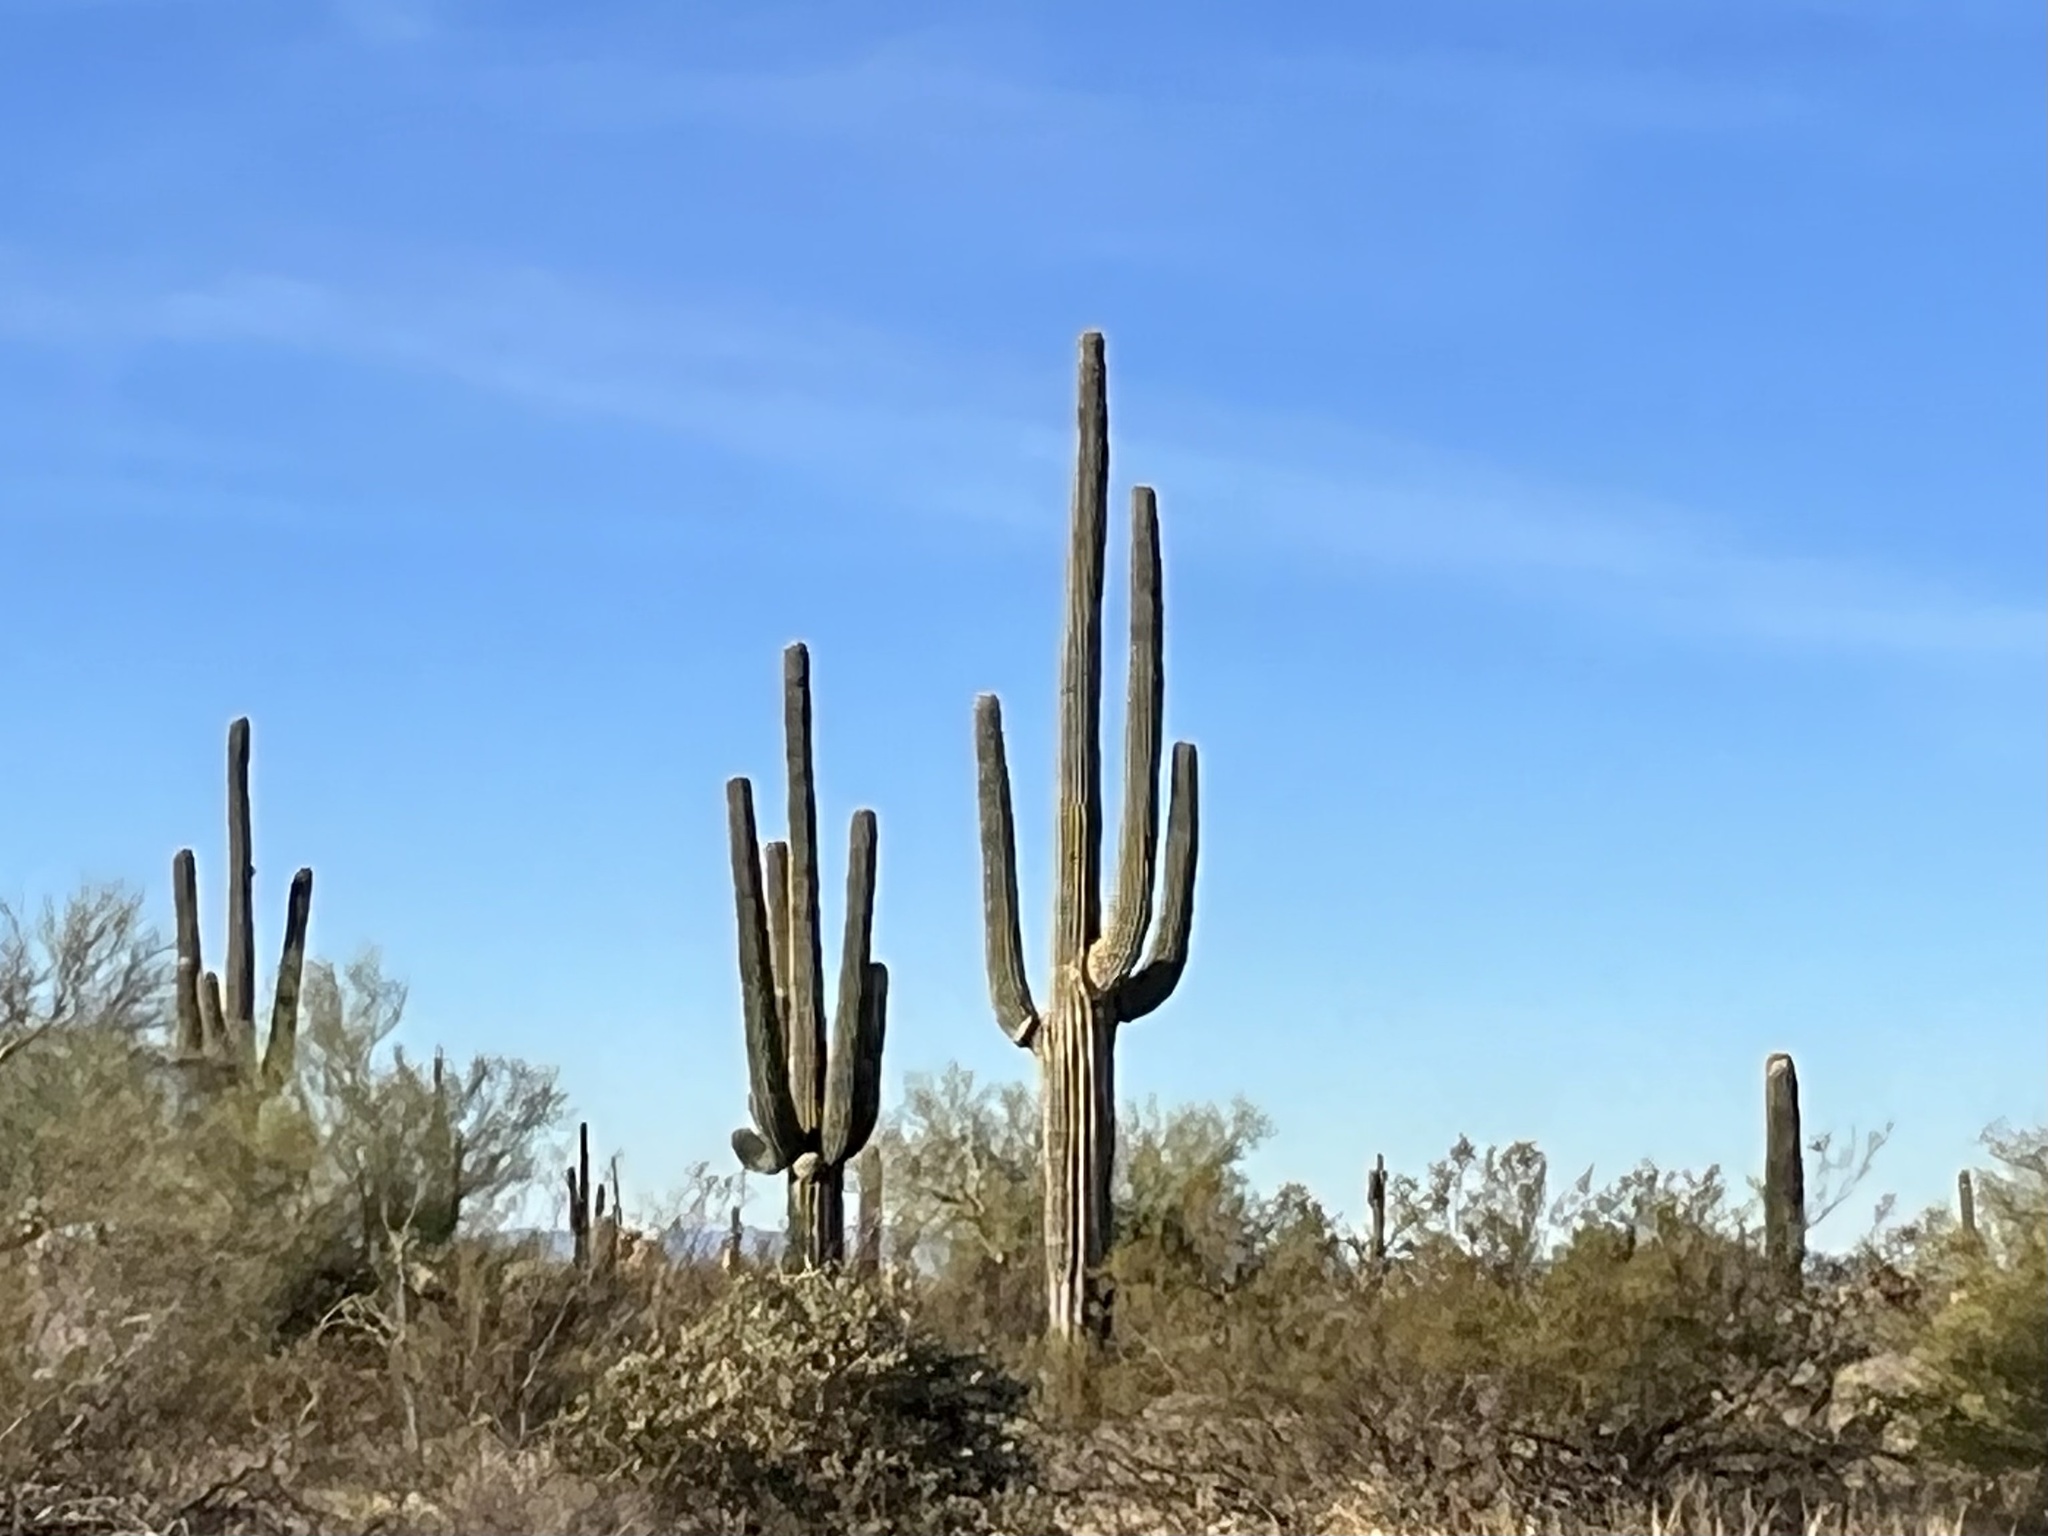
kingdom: Plantae
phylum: Tracheophyta
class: Magnoliopsida
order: Caryophyllales
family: Cactaceae
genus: Carnegiea
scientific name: Carnegiea gigantea
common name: Saguaro
